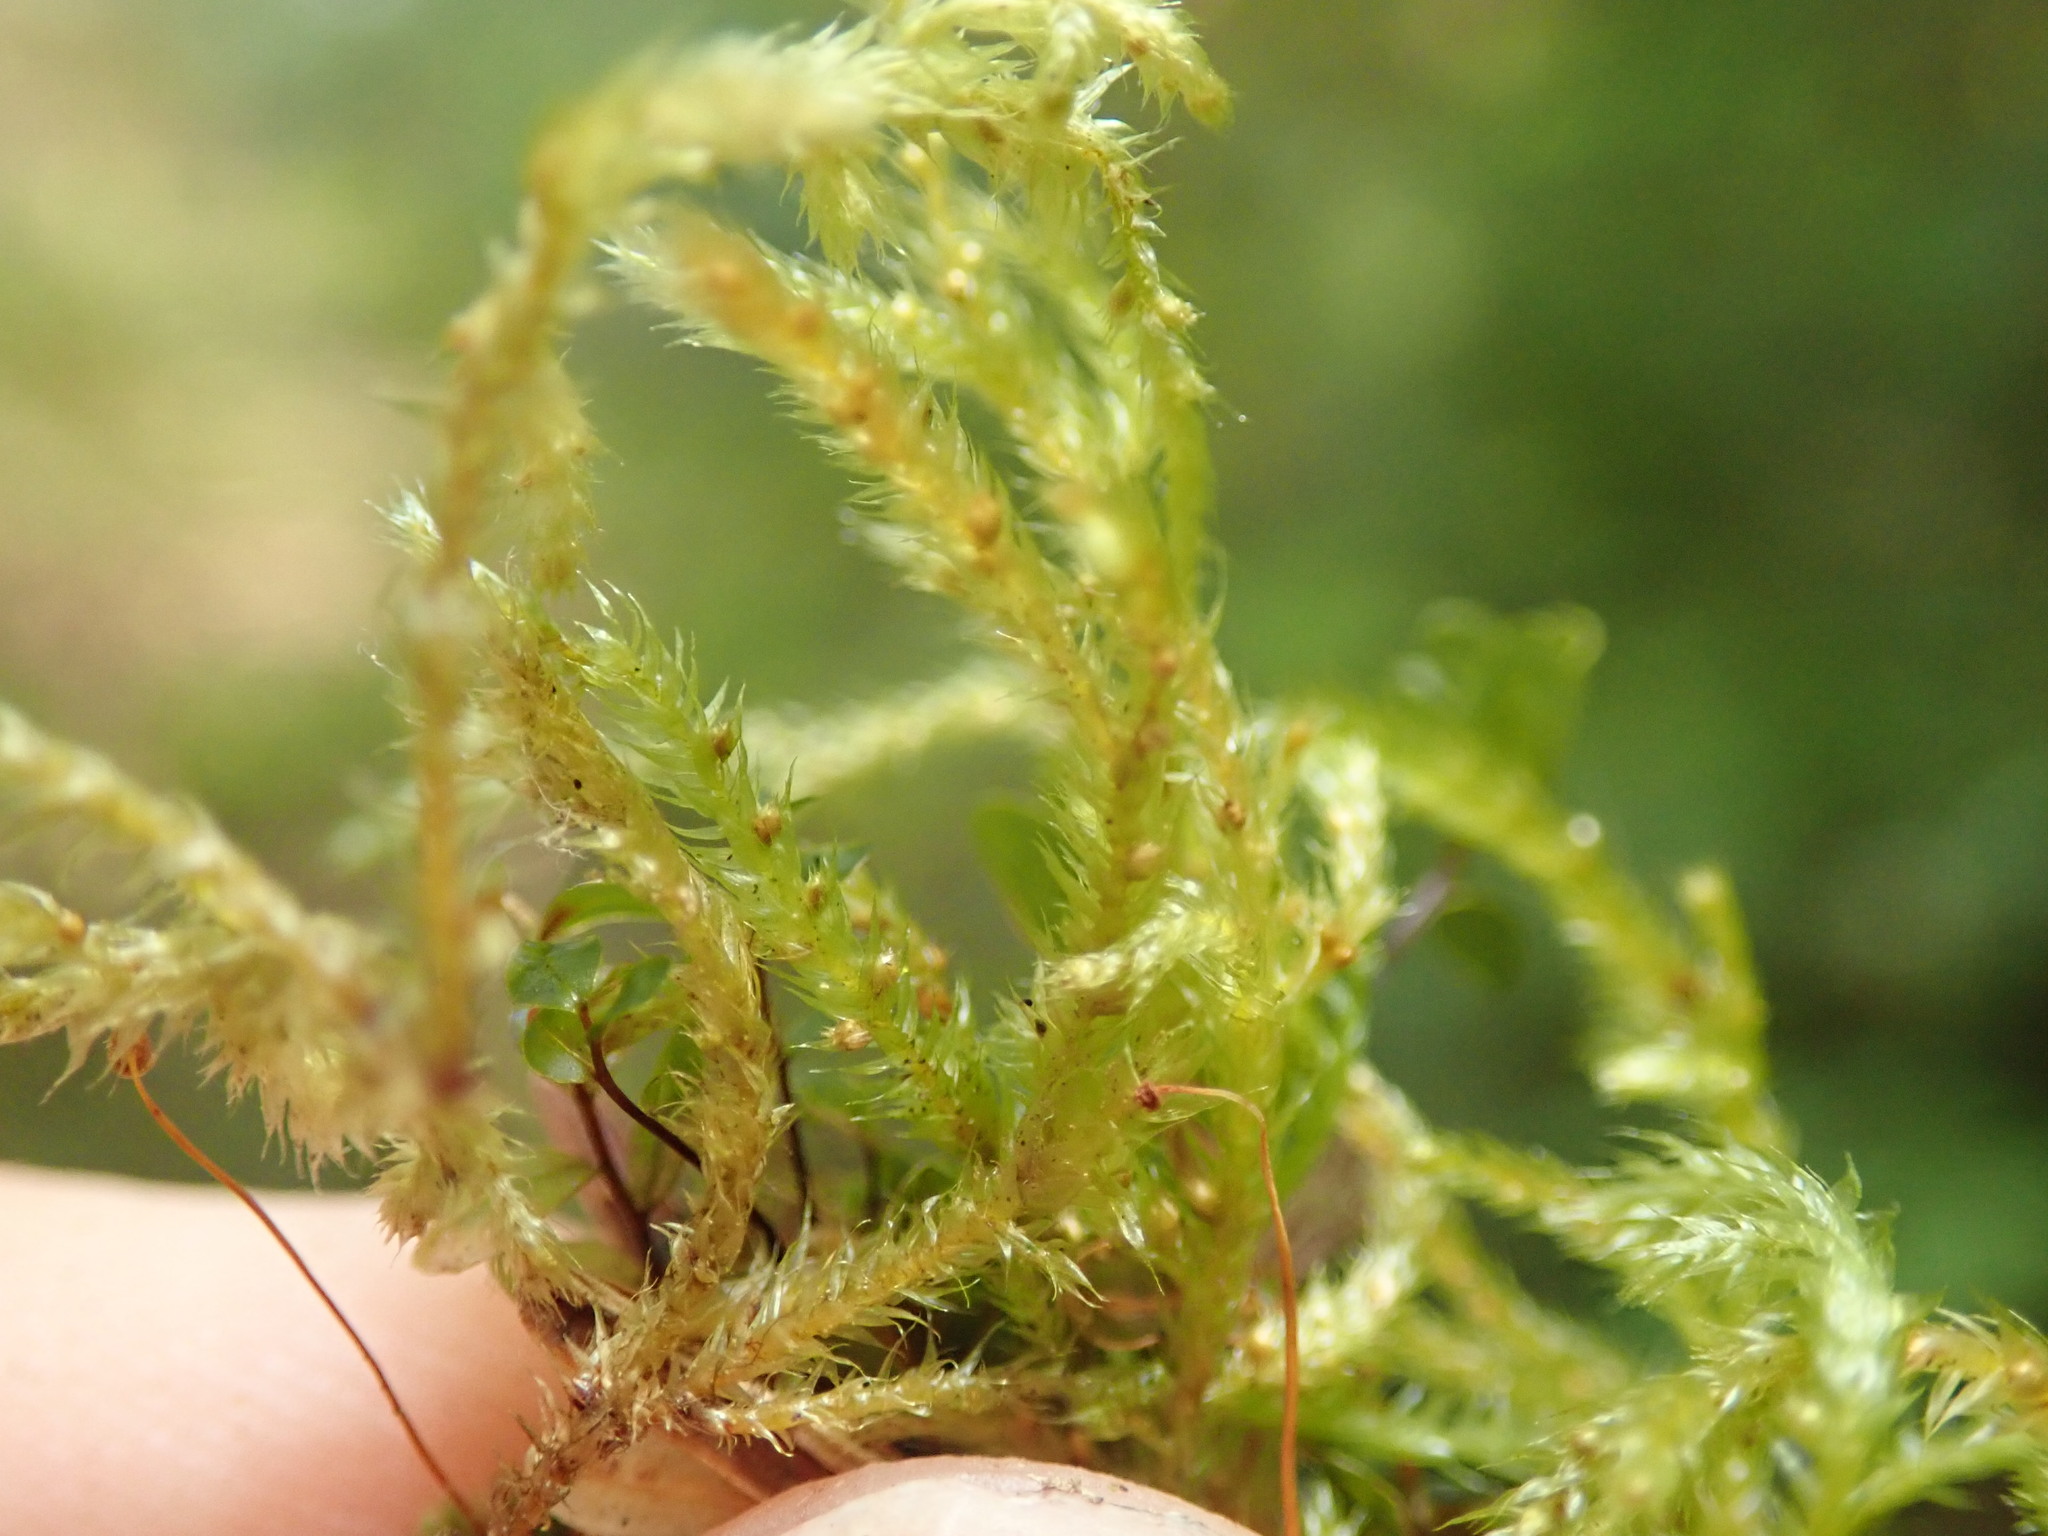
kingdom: Plantae
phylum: Bryophyta
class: Bryopsida
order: Hypnales
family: Lembophyllaceae
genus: Pseudisothecium
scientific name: Pseudisothecium stoloniferum
